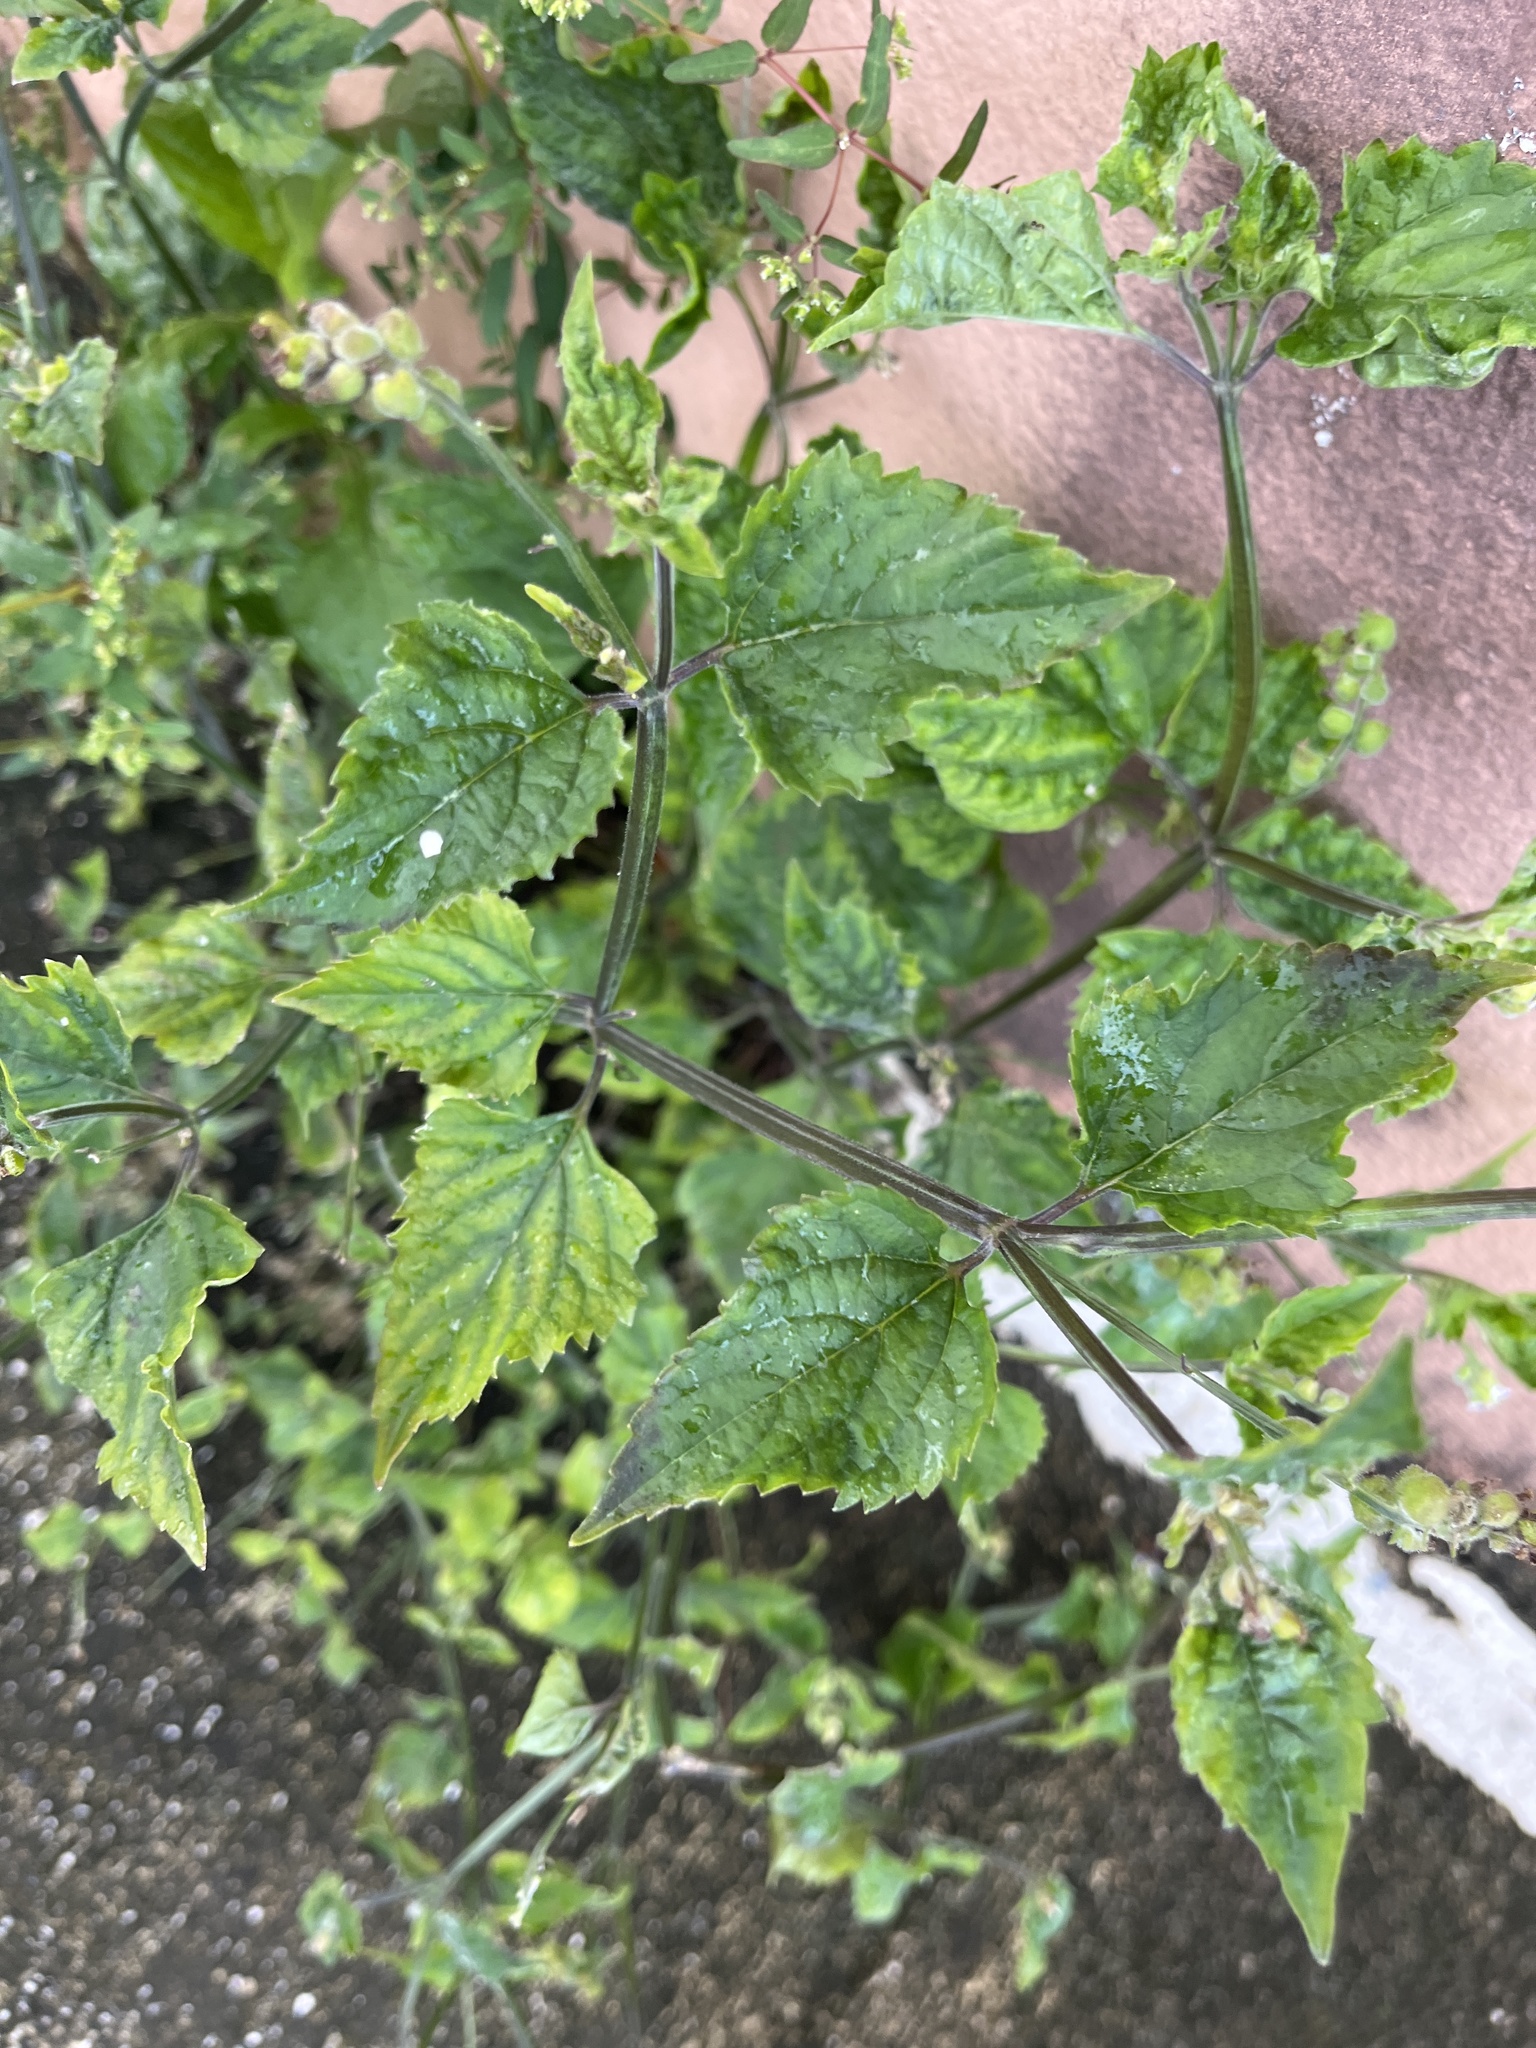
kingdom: Plantae
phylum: Tracheophyta
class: Magnoliopsida
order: Lamiales
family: Verbenaceae
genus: Priva
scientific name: Priva lappulacea
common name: Fasten-'pon-coat
